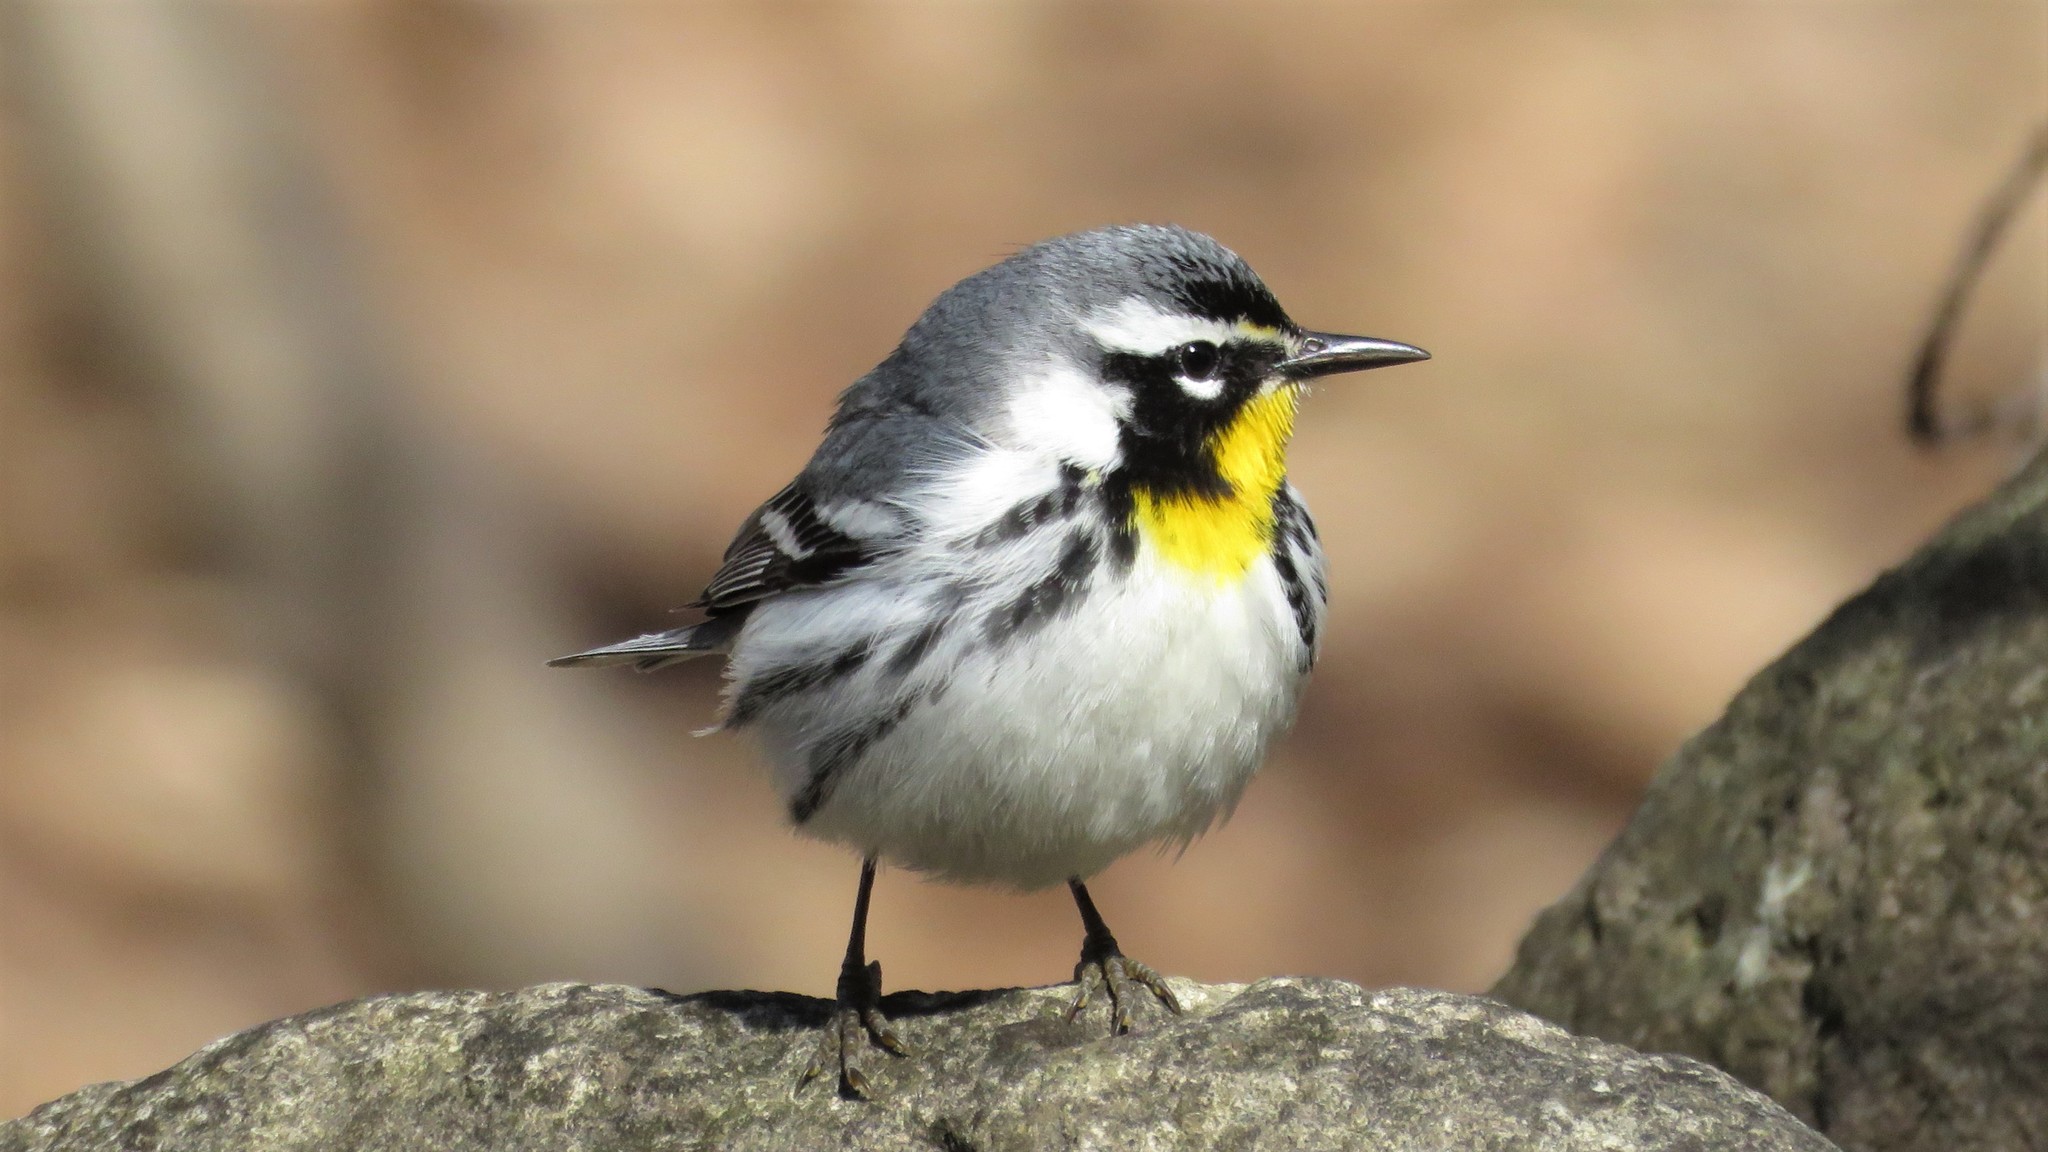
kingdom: Animalia
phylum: Chordata
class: Aves
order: Passeriformes
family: Parulidae
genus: Setophaga
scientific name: Setophaga dominica
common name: Yellow-throated warbler
